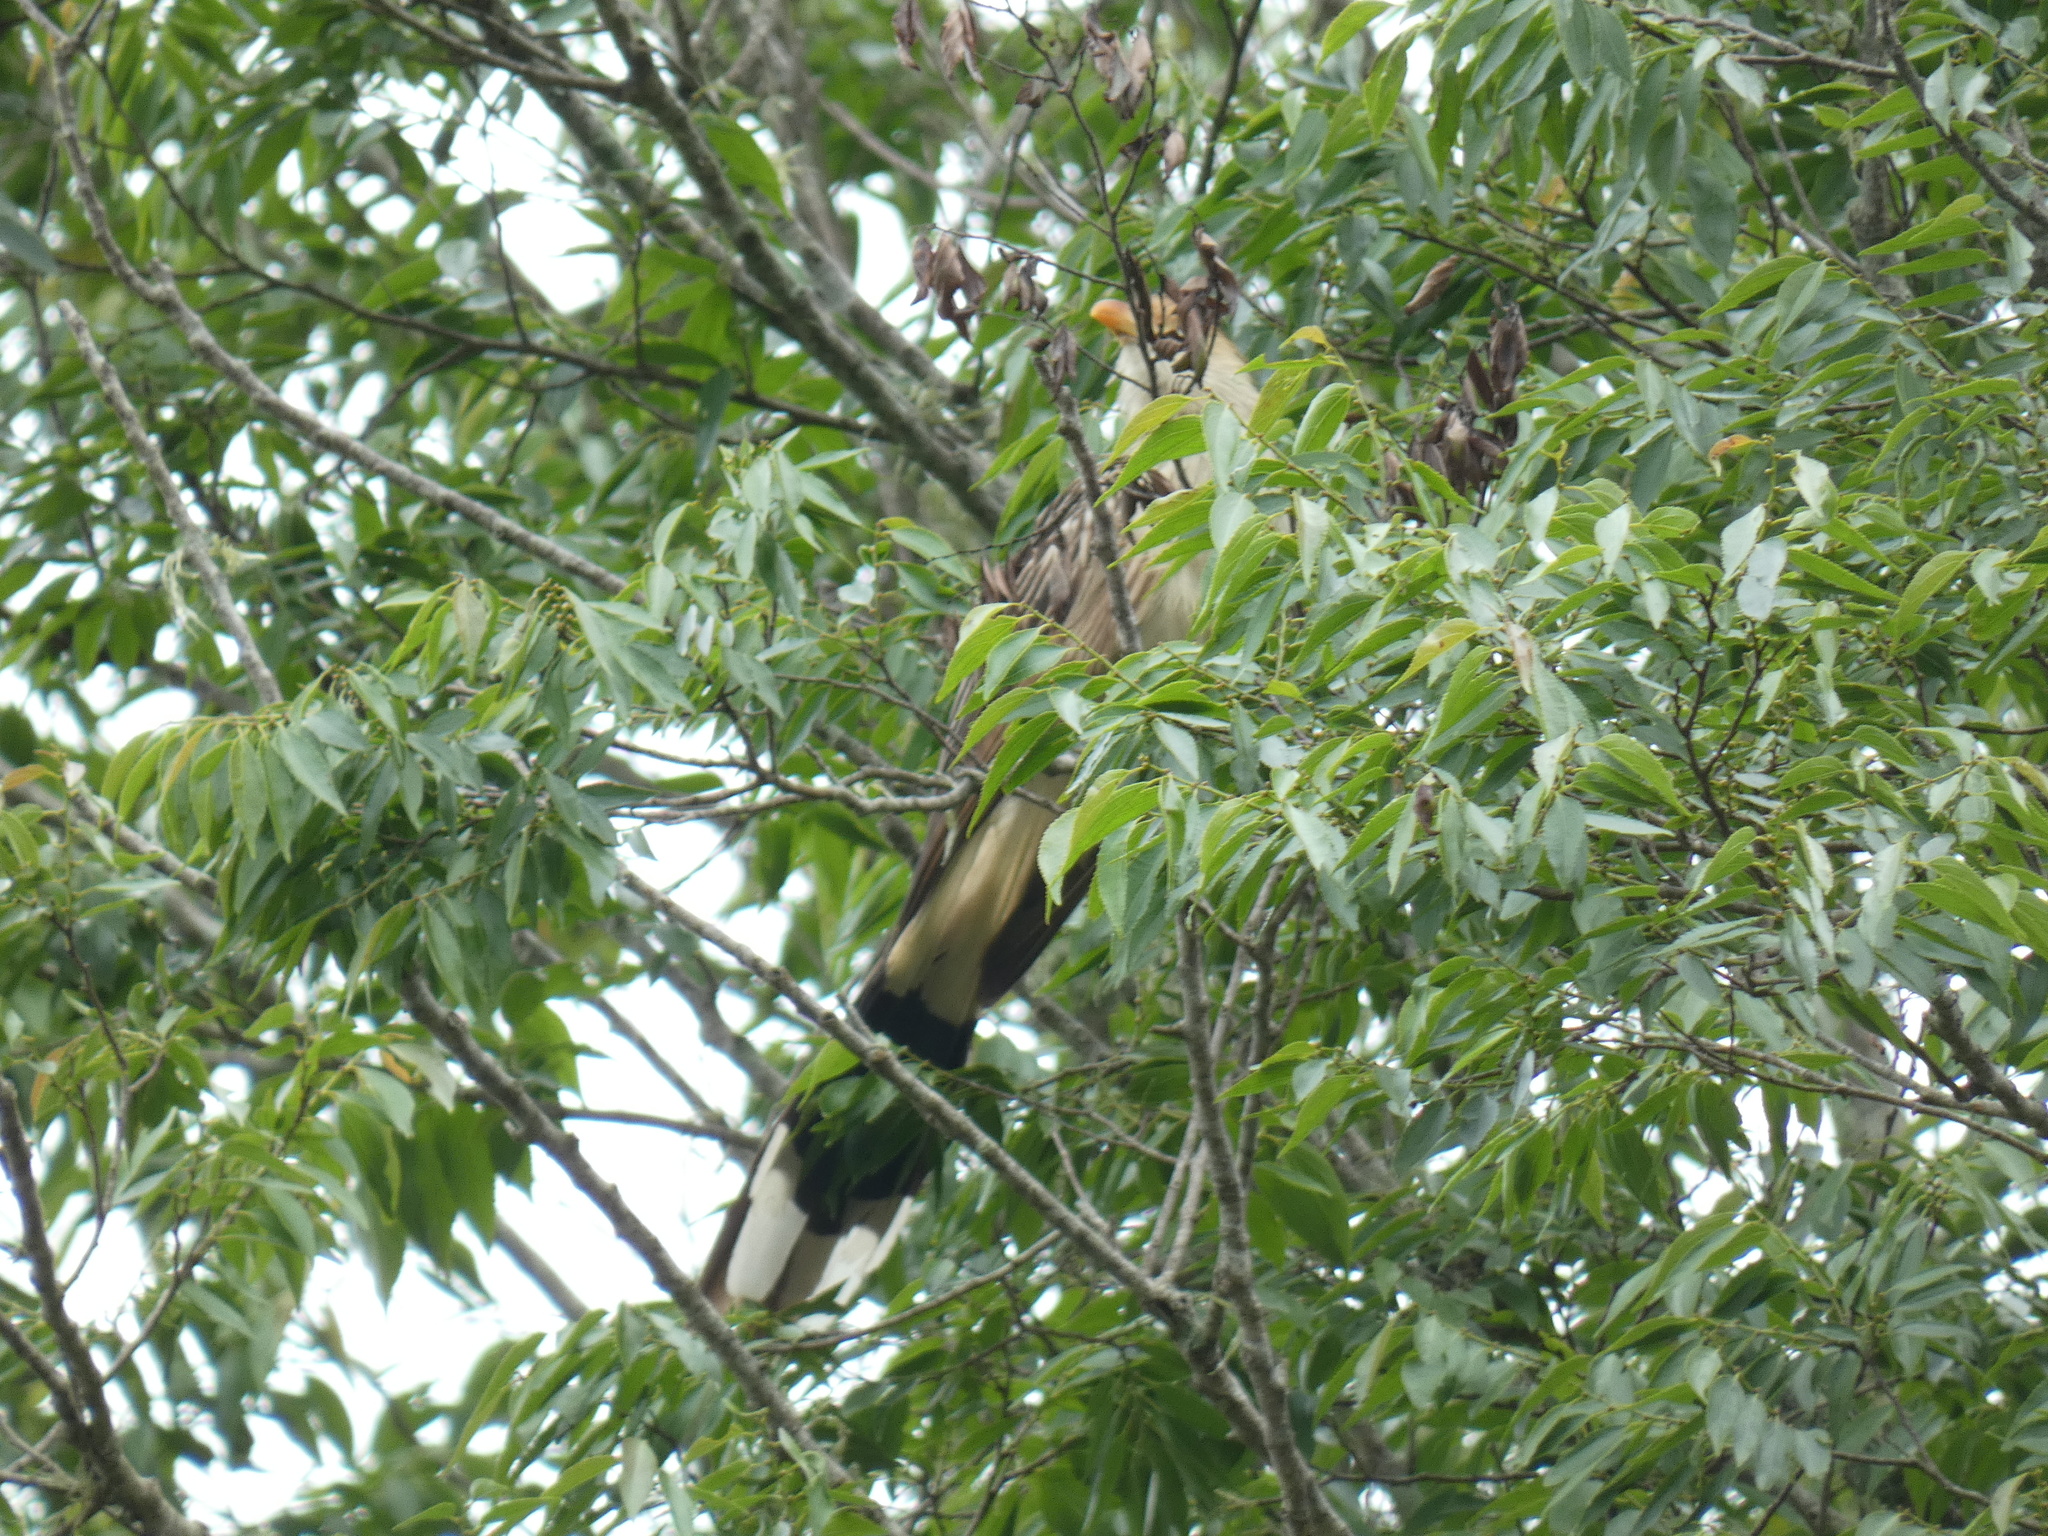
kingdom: Animalia
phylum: Chordata
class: Aves
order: Cuculiformes
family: Cuculidae
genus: Guira
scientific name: Guira guira
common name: Guira cuckoo
